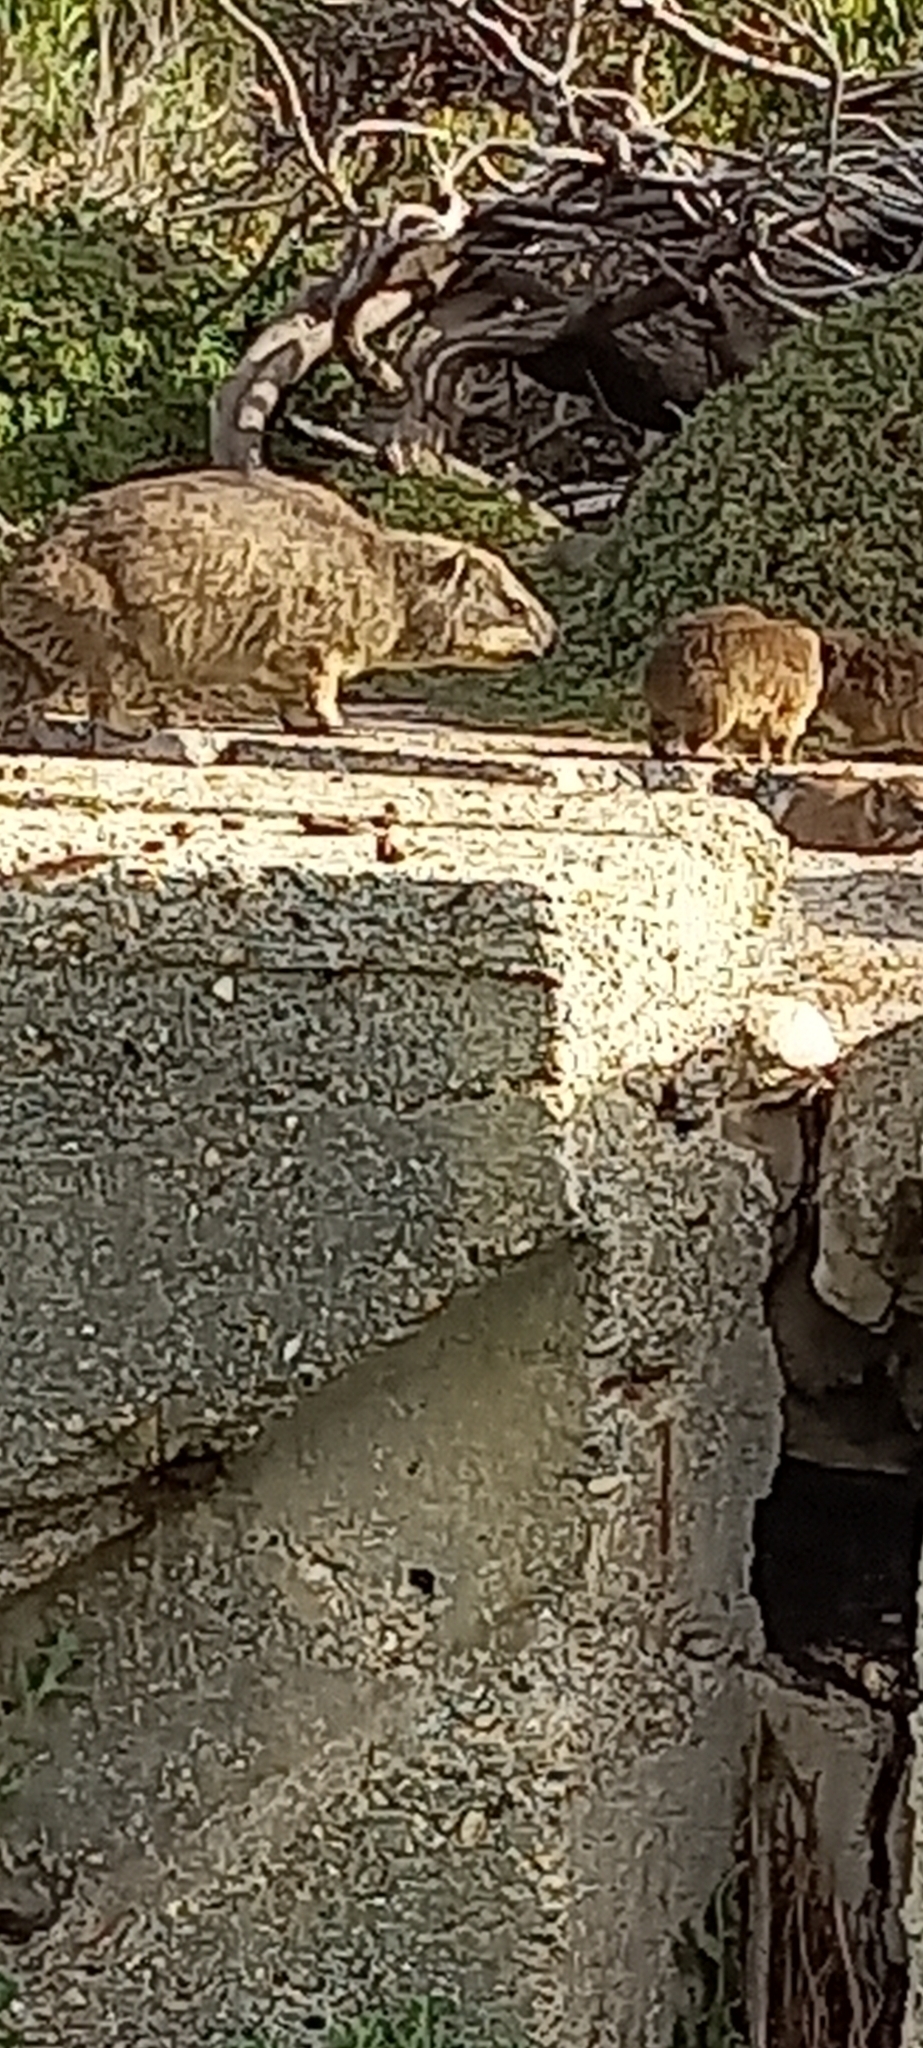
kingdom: Animalia
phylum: Chordata
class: Mammalia
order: Hyracoidea
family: Procaviidae
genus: Procavia
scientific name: Procavia capensis
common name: Rock hyrax
